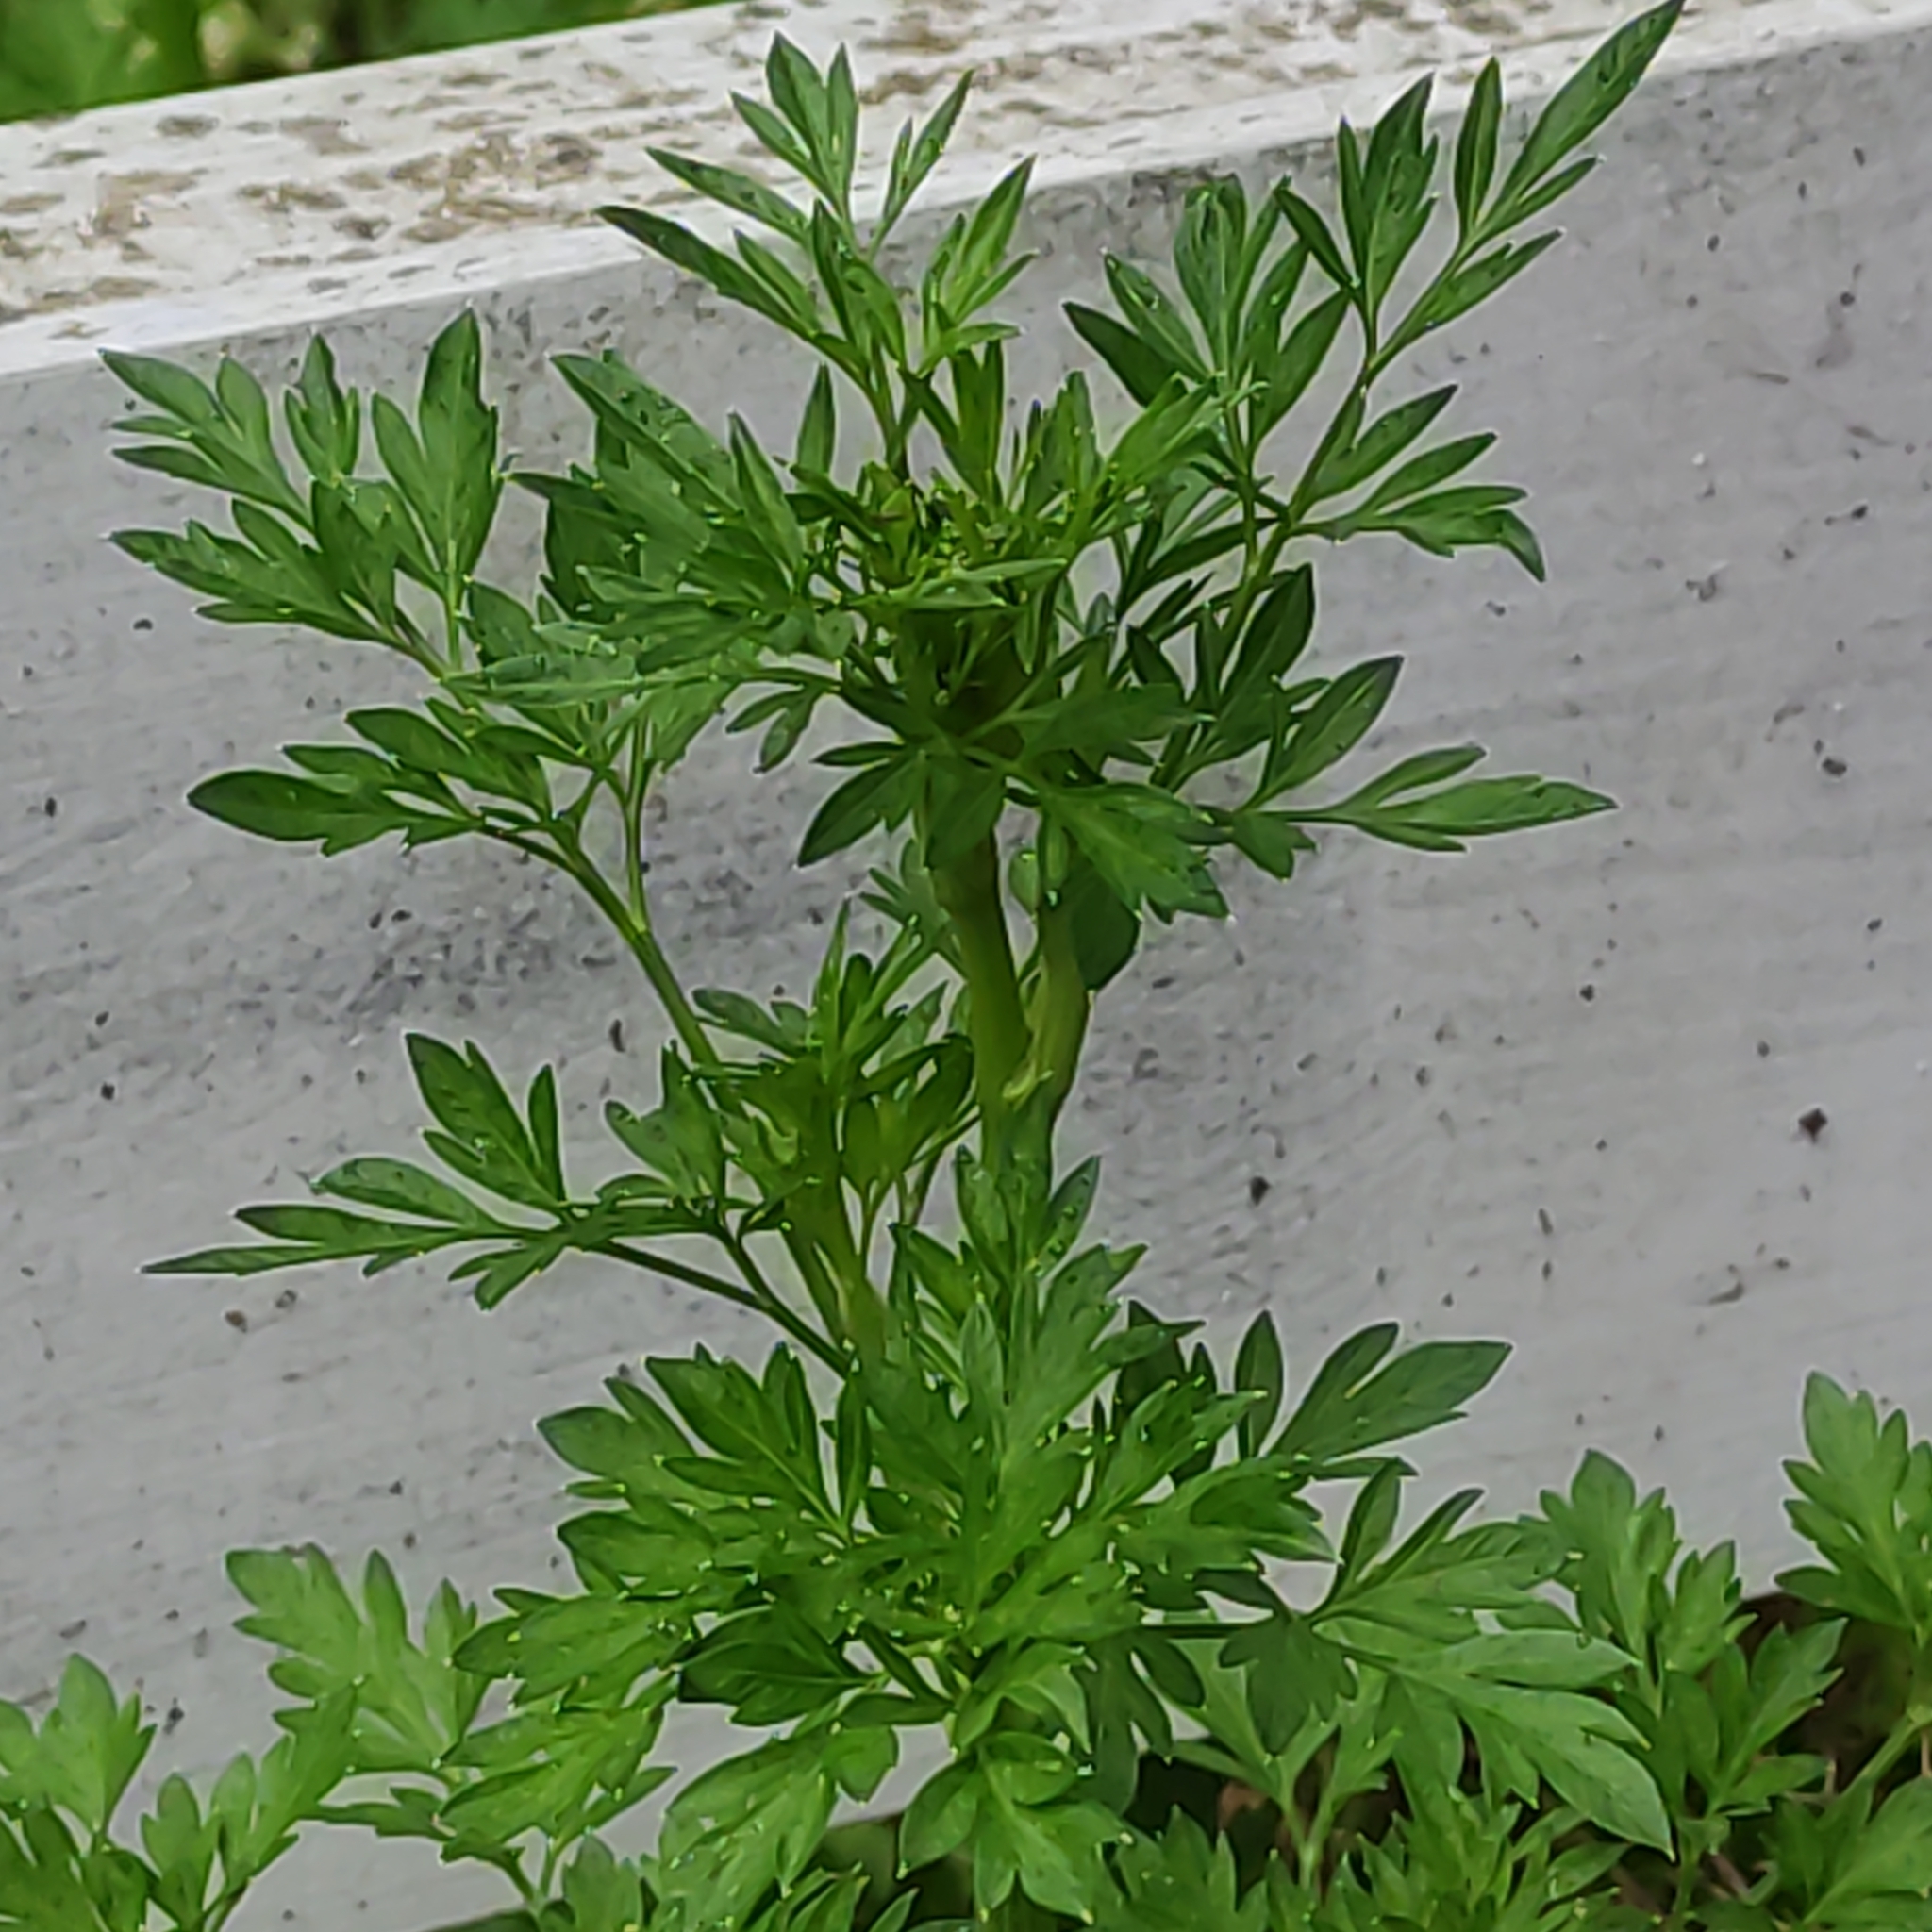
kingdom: Plantae
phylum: Tracheophyta
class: Magnoliopsida
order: Apiales
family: Apiaceae
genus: Petroselinum
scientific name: Petroselinum crispum
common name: Parsley
